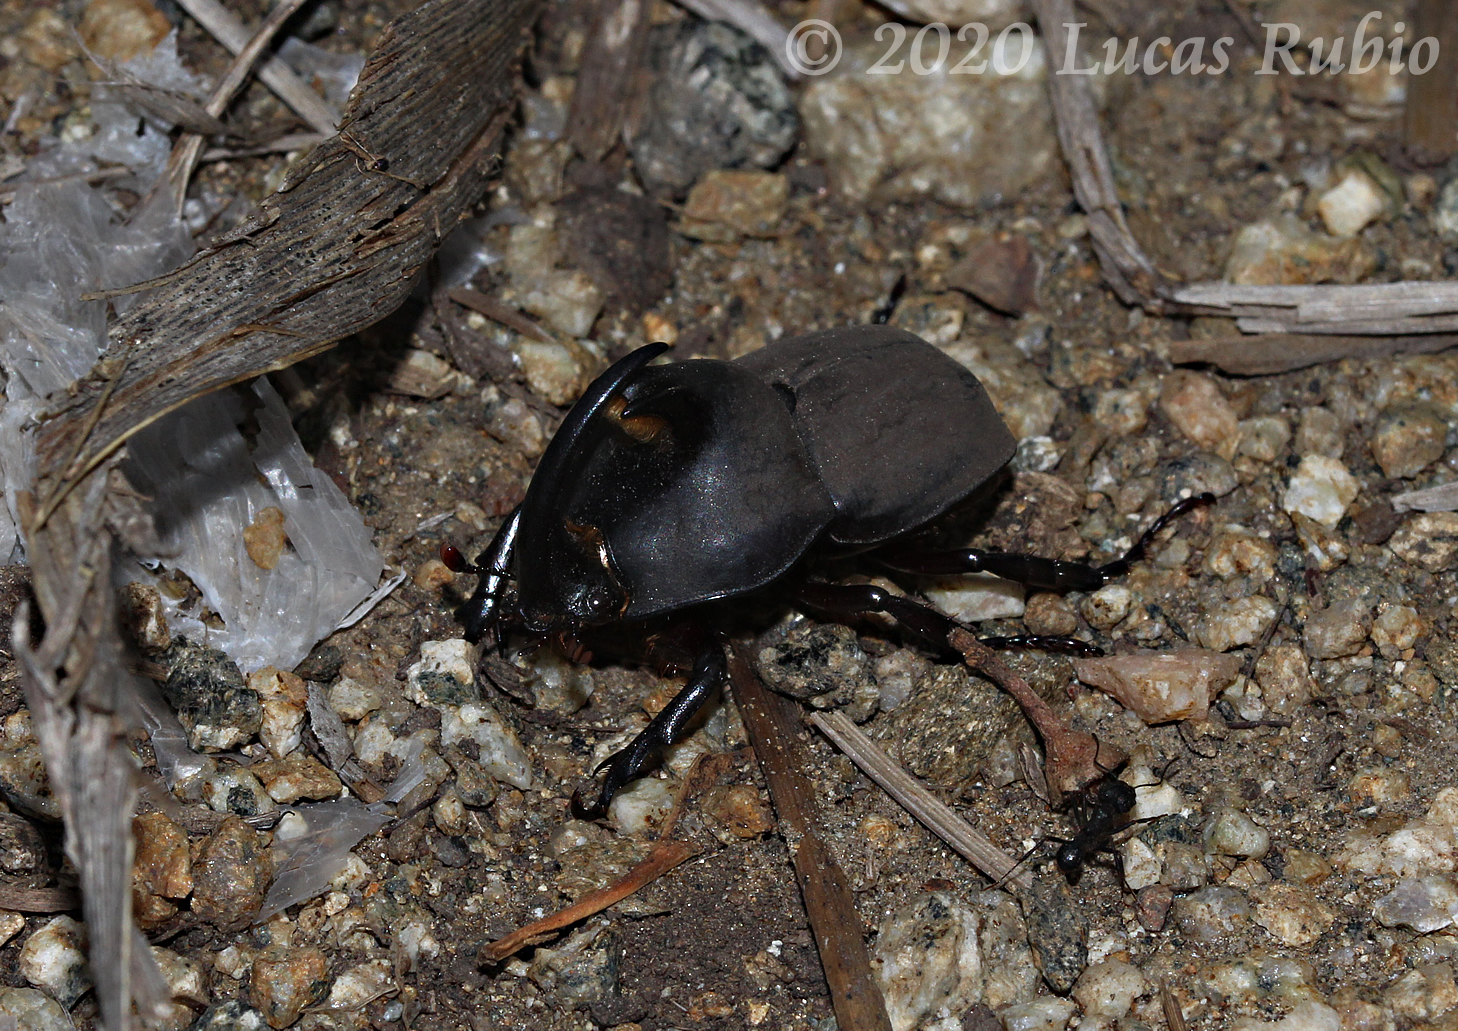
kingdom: Animalia
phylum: Arthropoda
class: Insecta
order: Coleoptera
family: Scarabaeidae
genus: Diloboderus
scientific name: Diloboderus abderus
